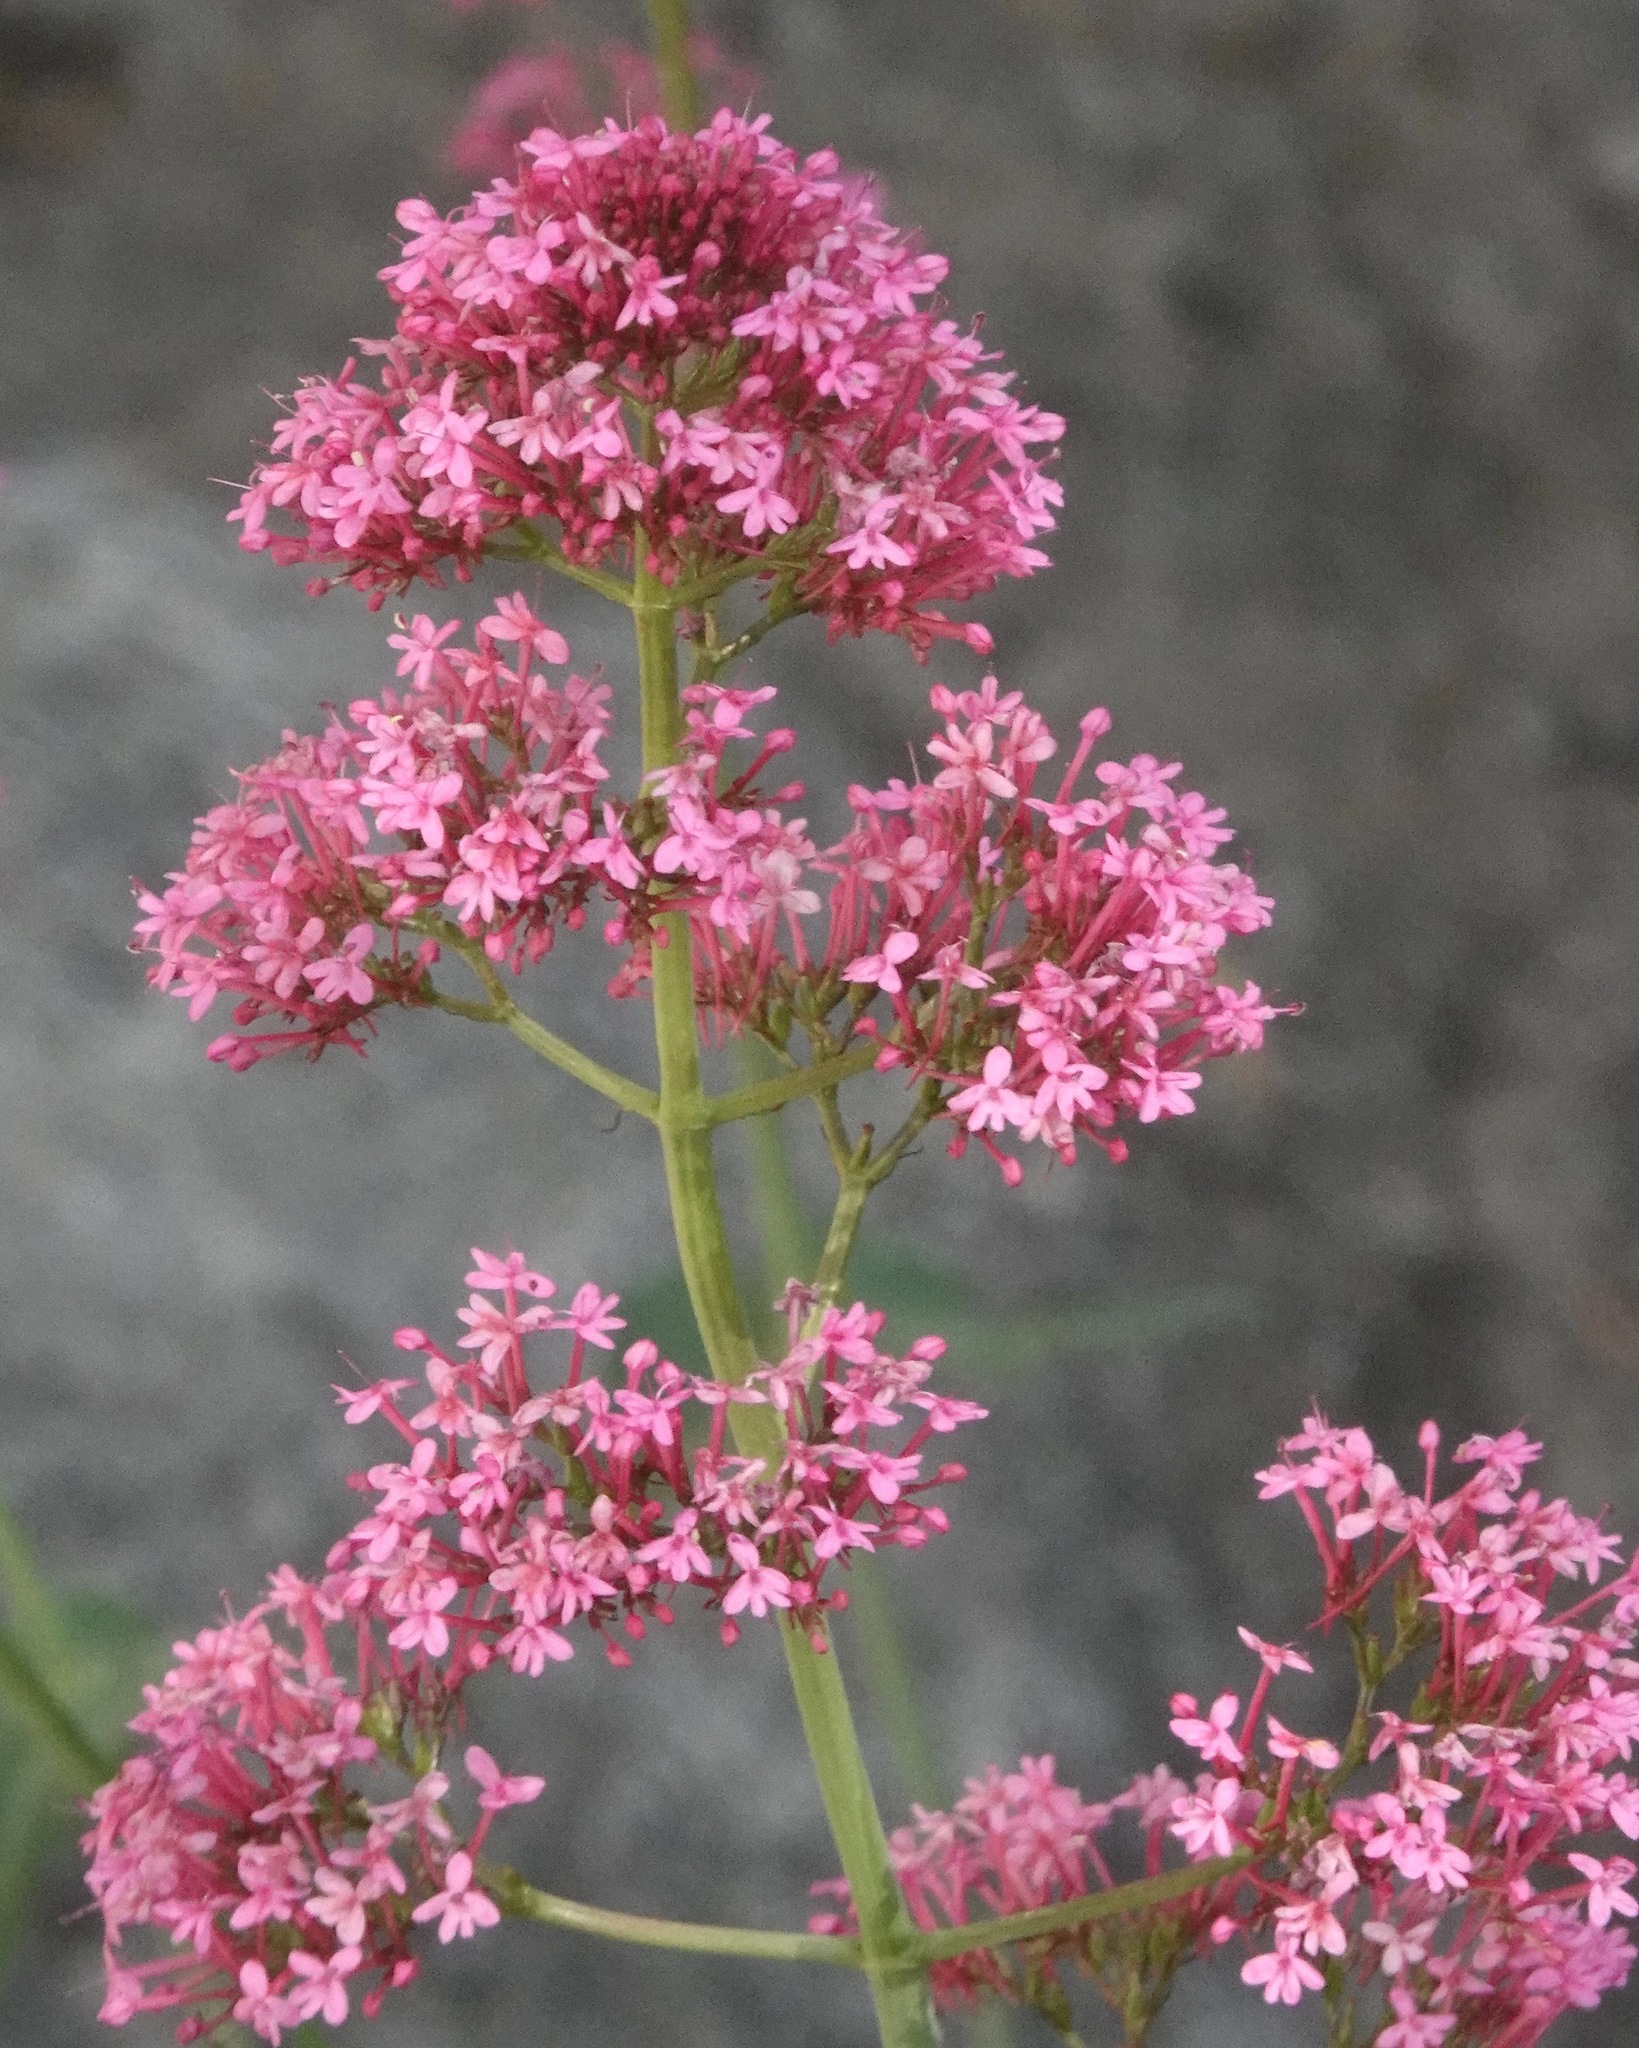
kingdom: Plantae
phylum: Tracheophyta
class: Magnoliopsida
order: Dipsacales
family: Caprifoliaceae
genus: Centranthus
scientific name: Centranthus ruber
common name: Red valerian
